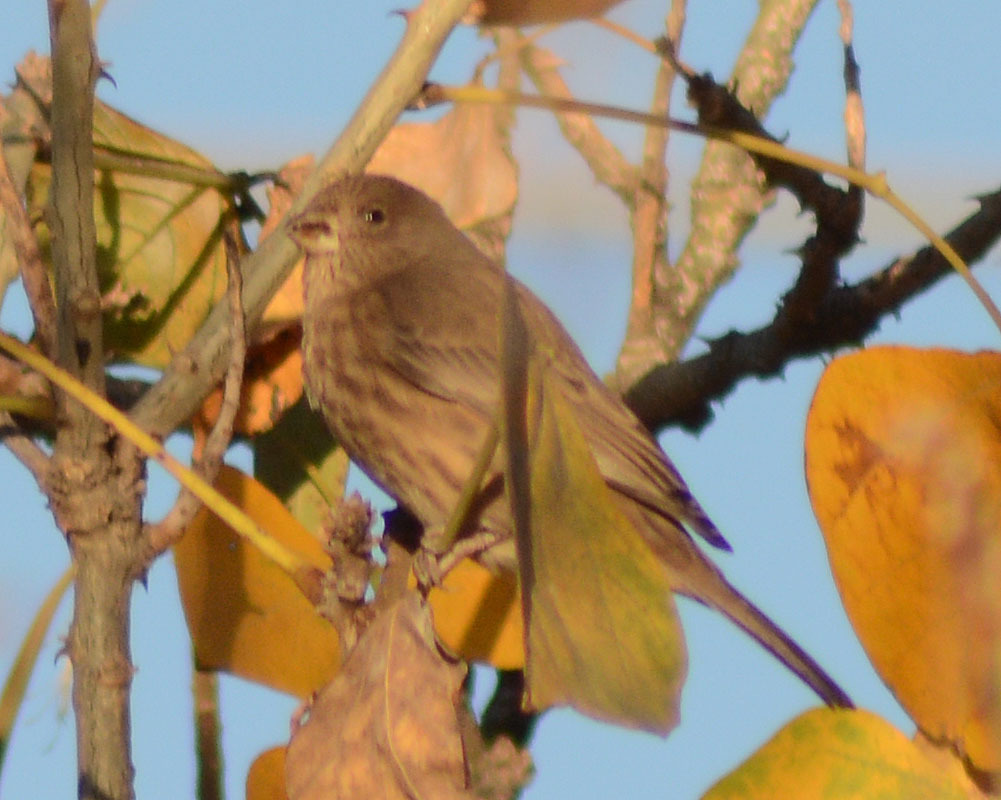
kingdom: Animalia
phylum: Chordata
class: Aves
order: Passeriformes
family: Fringillidae
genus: Haemorhous
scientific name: Haemorhous mexicanus
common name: House finch
